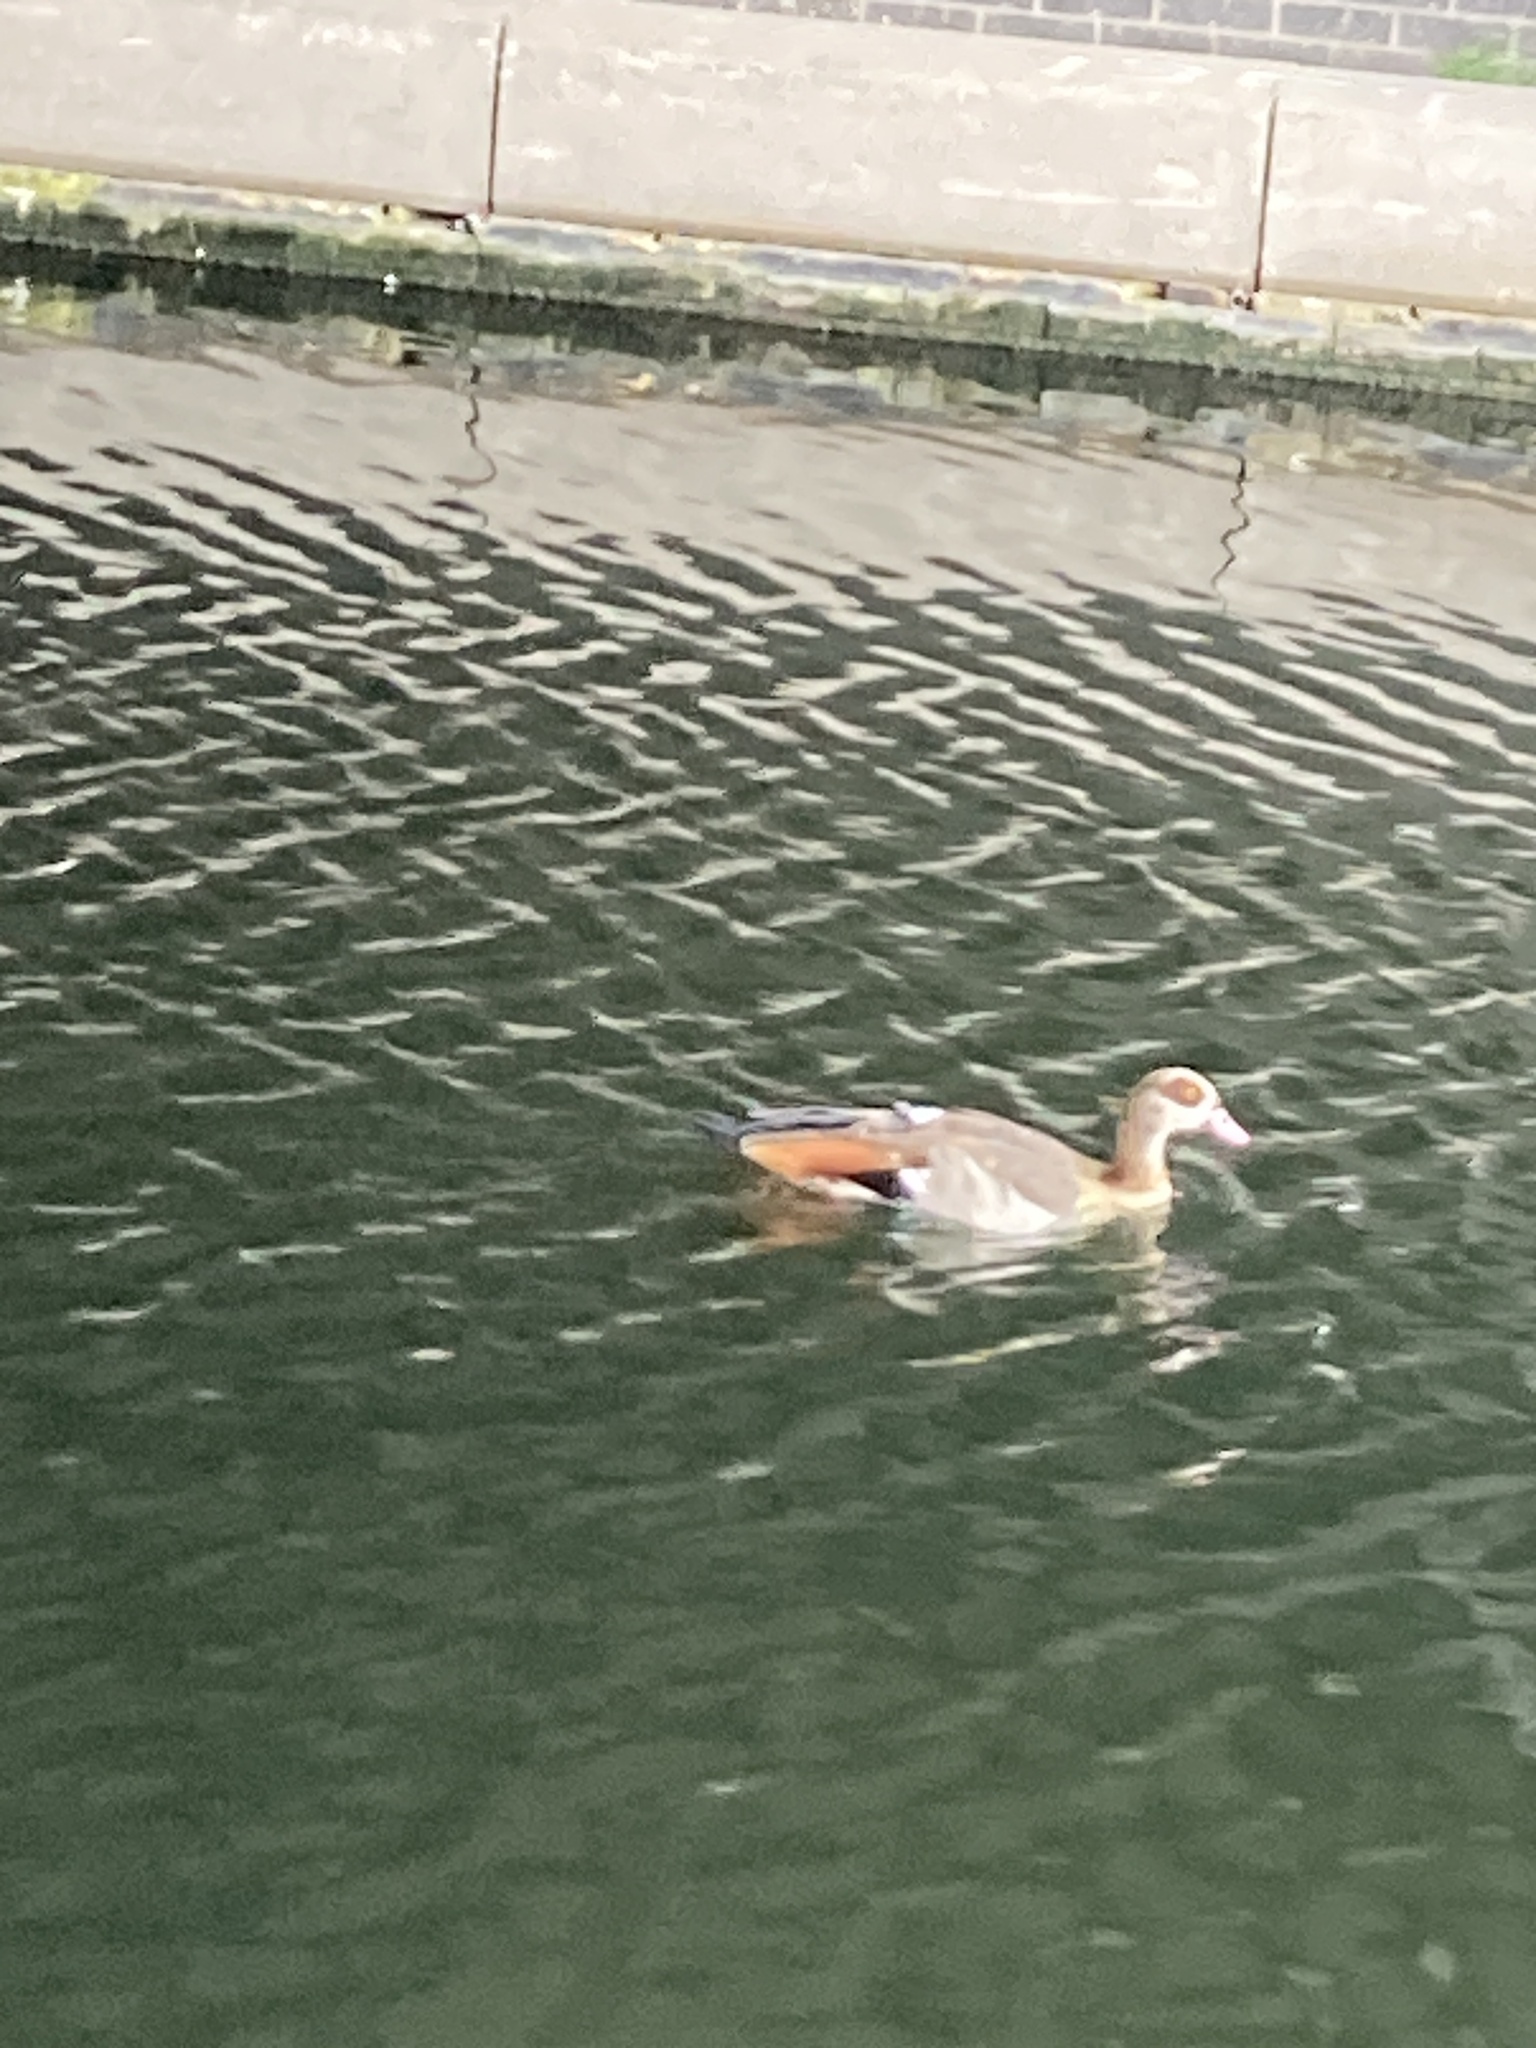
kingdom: Animalia
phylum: Chordata
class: Aves
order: Anseriformes
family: Anatidae
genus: Alopochen
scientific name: Alopochen aegyptiaca
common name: Egyptian goose
